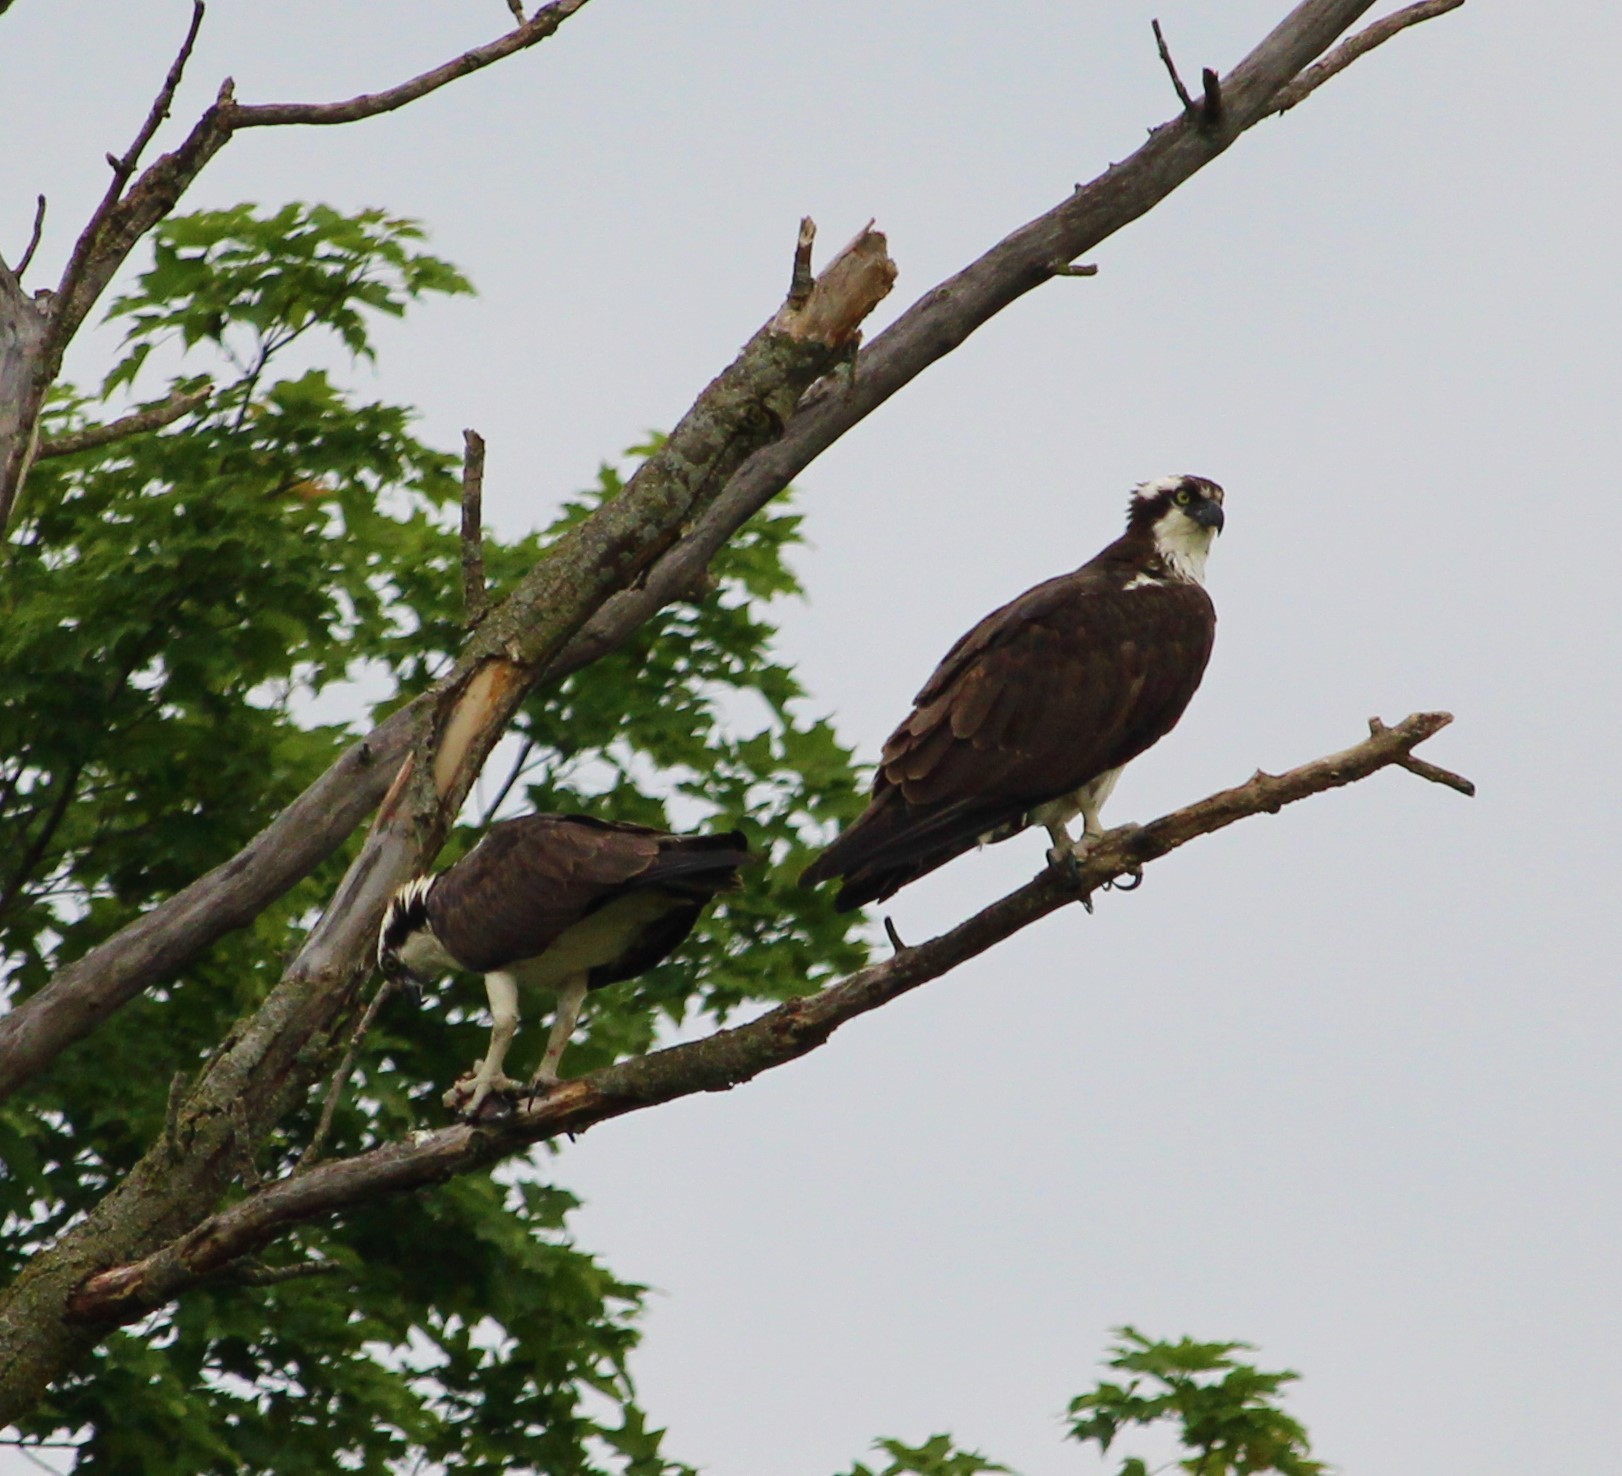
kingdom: Animalia
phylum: Chordata
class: Aves
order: Accipitriformes
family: Pandionidae
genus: Pandion
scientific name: Pandion haliaetus
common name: Osprey
